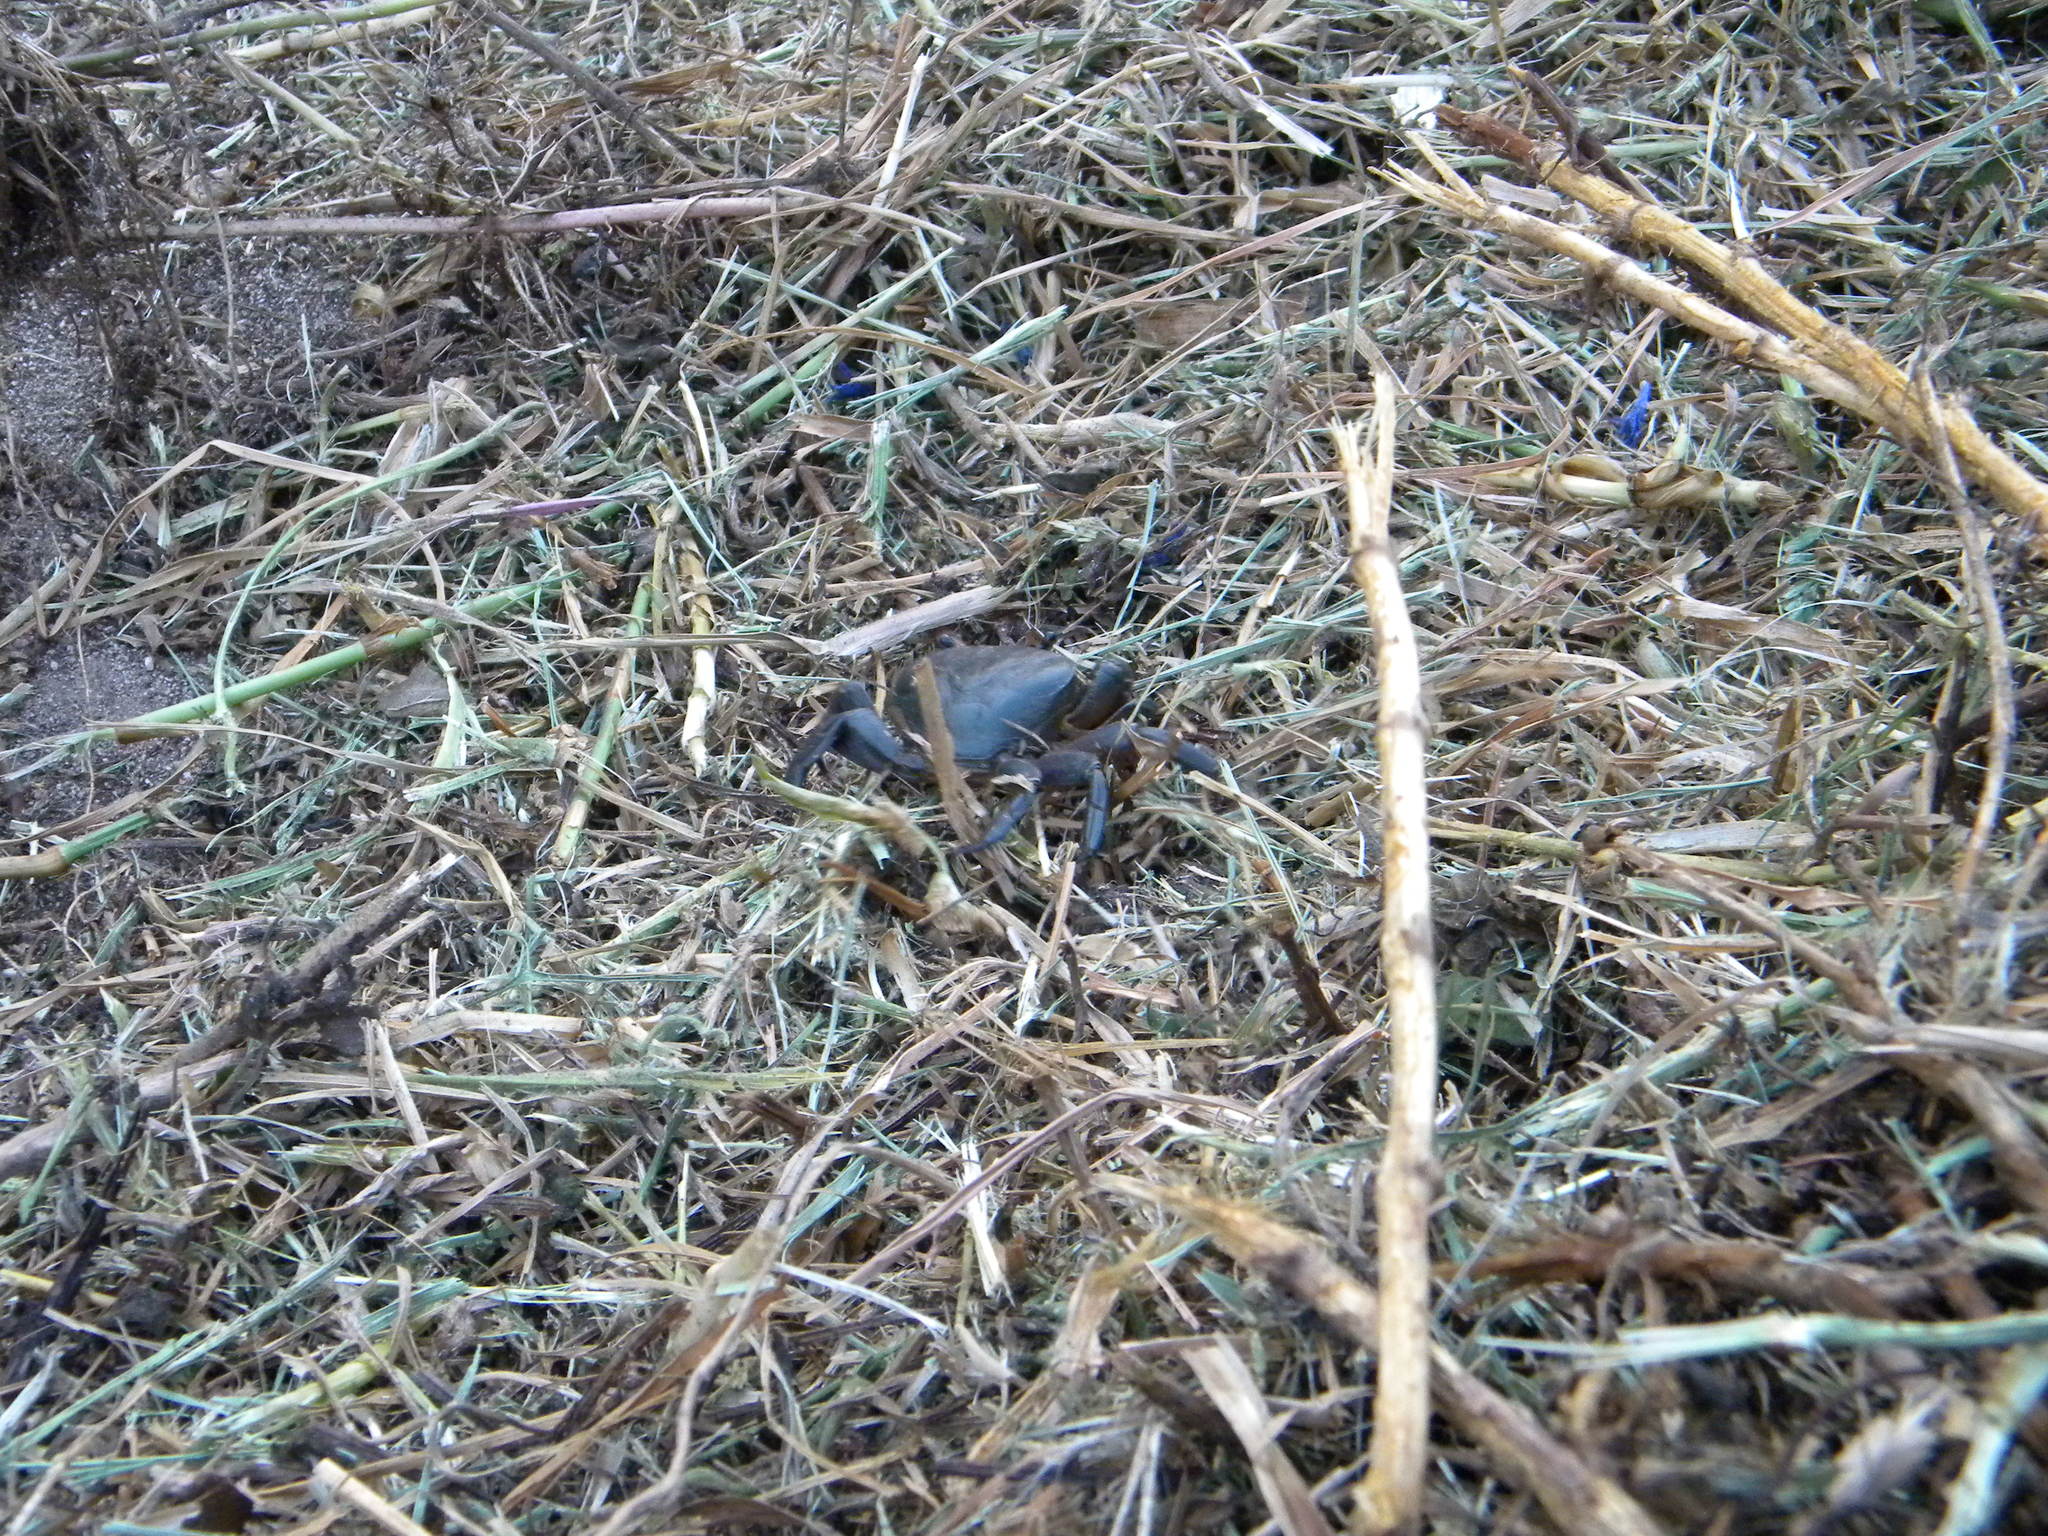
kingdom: Animalia
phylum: Arthropoda
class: Malacostraca
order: Decapoda
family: Potamonautidae
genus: Potamonautes
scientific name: Potamonautes perlatus
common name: Cape river crab
